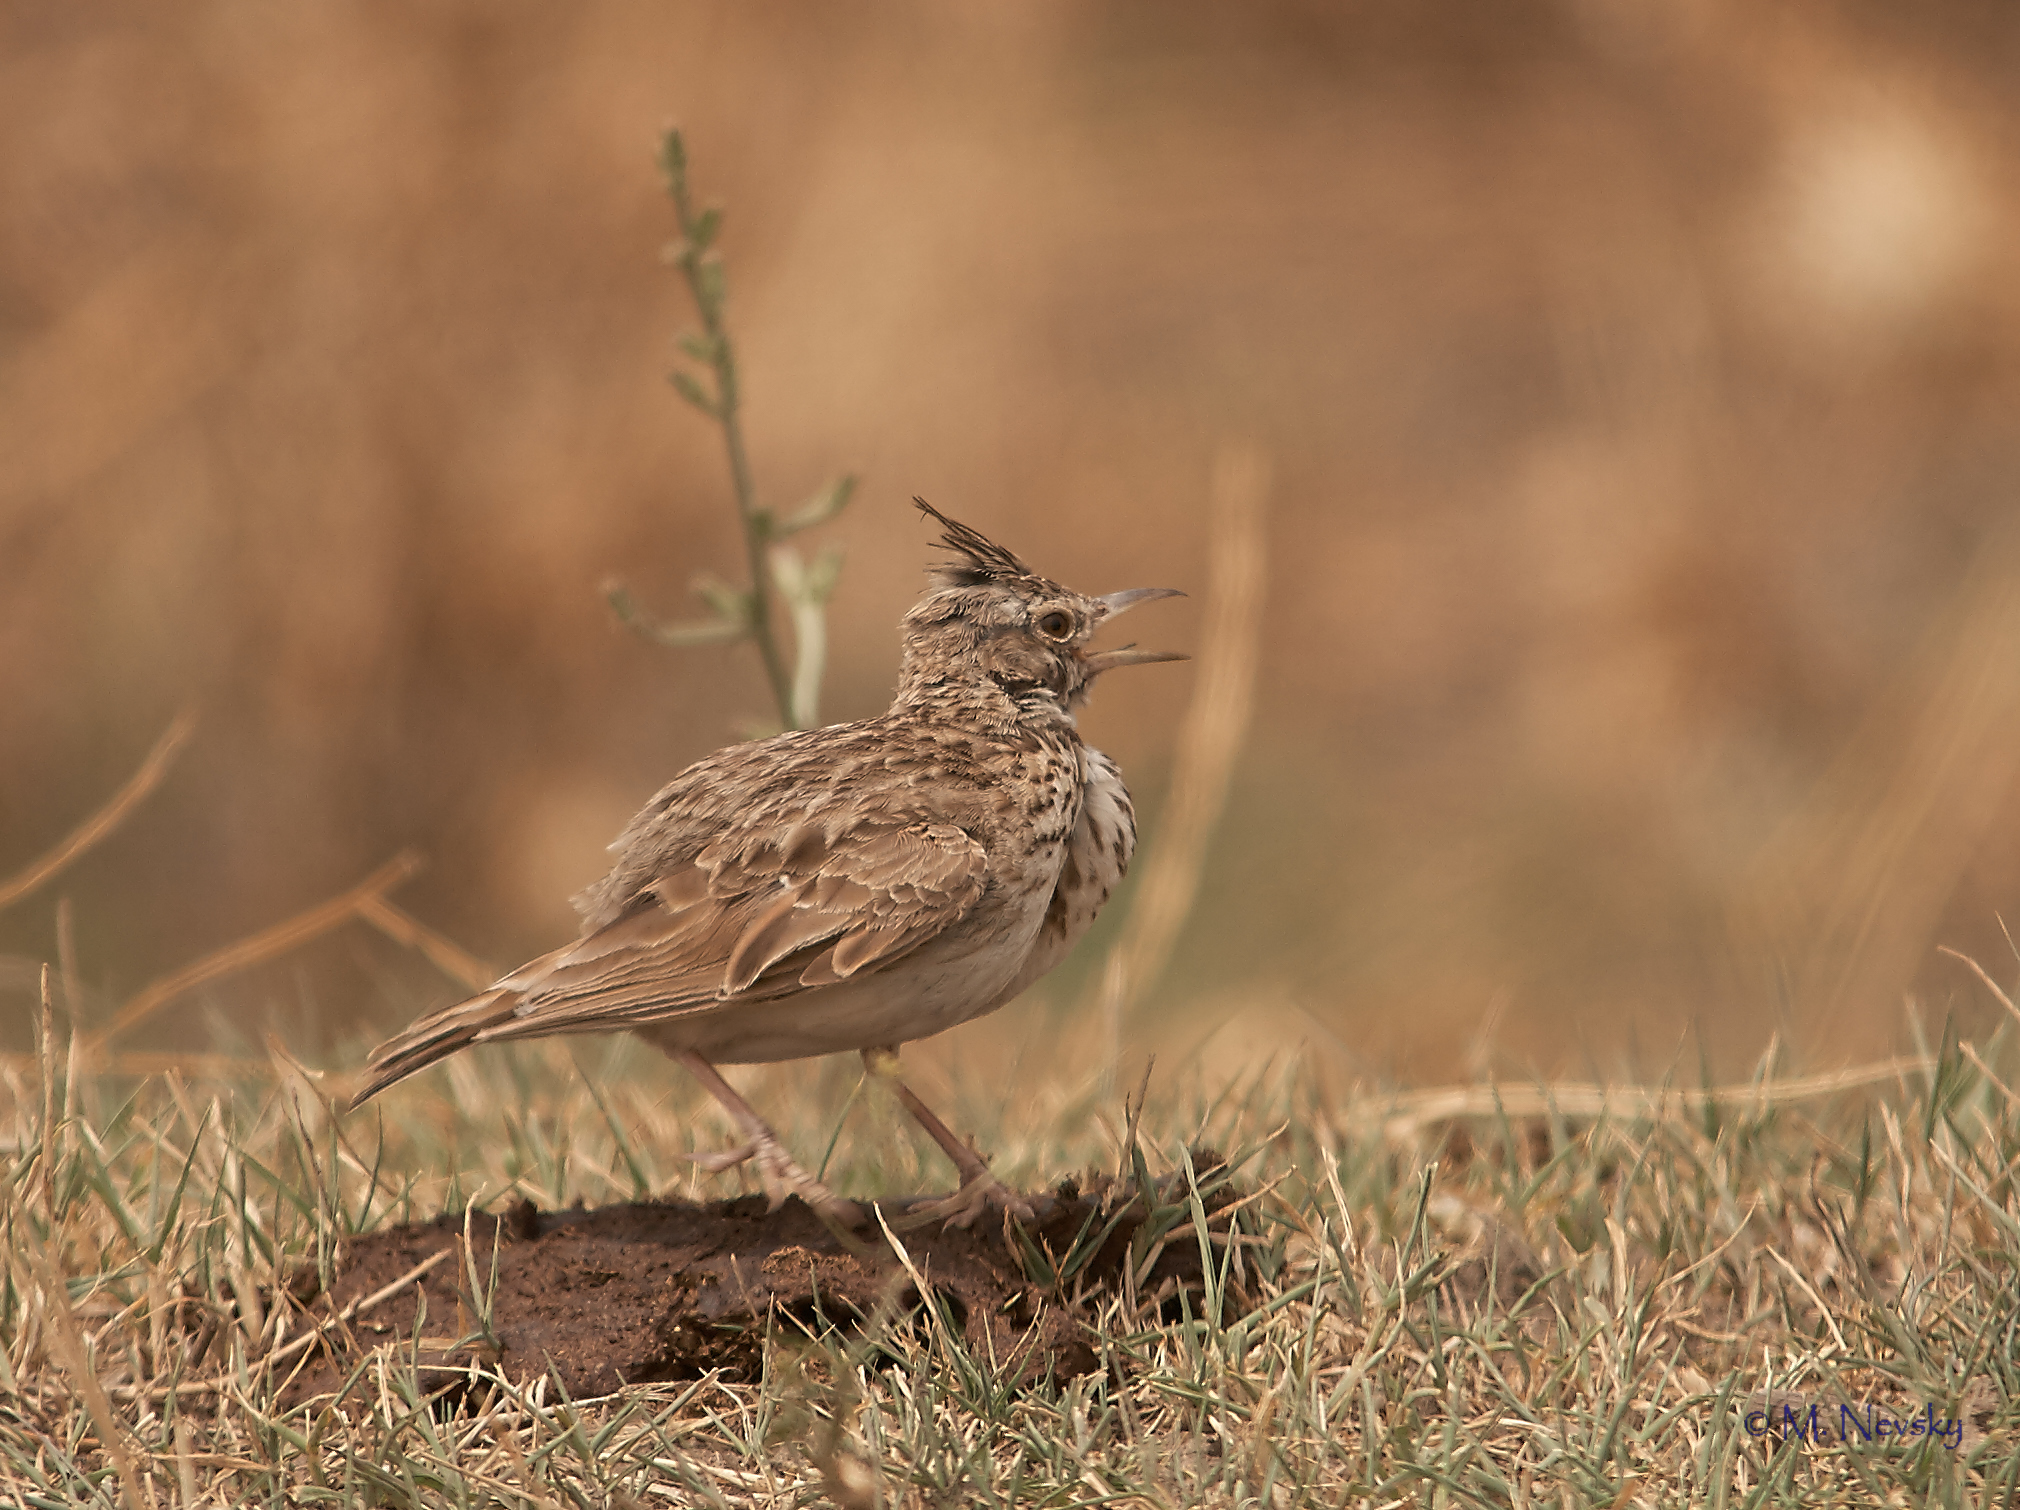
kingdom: Animalia
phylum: Chordata
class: Aves
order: Passeriformes
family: Alaudidae
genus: Galerida
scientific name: Galerida cristata
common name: Crested lark
